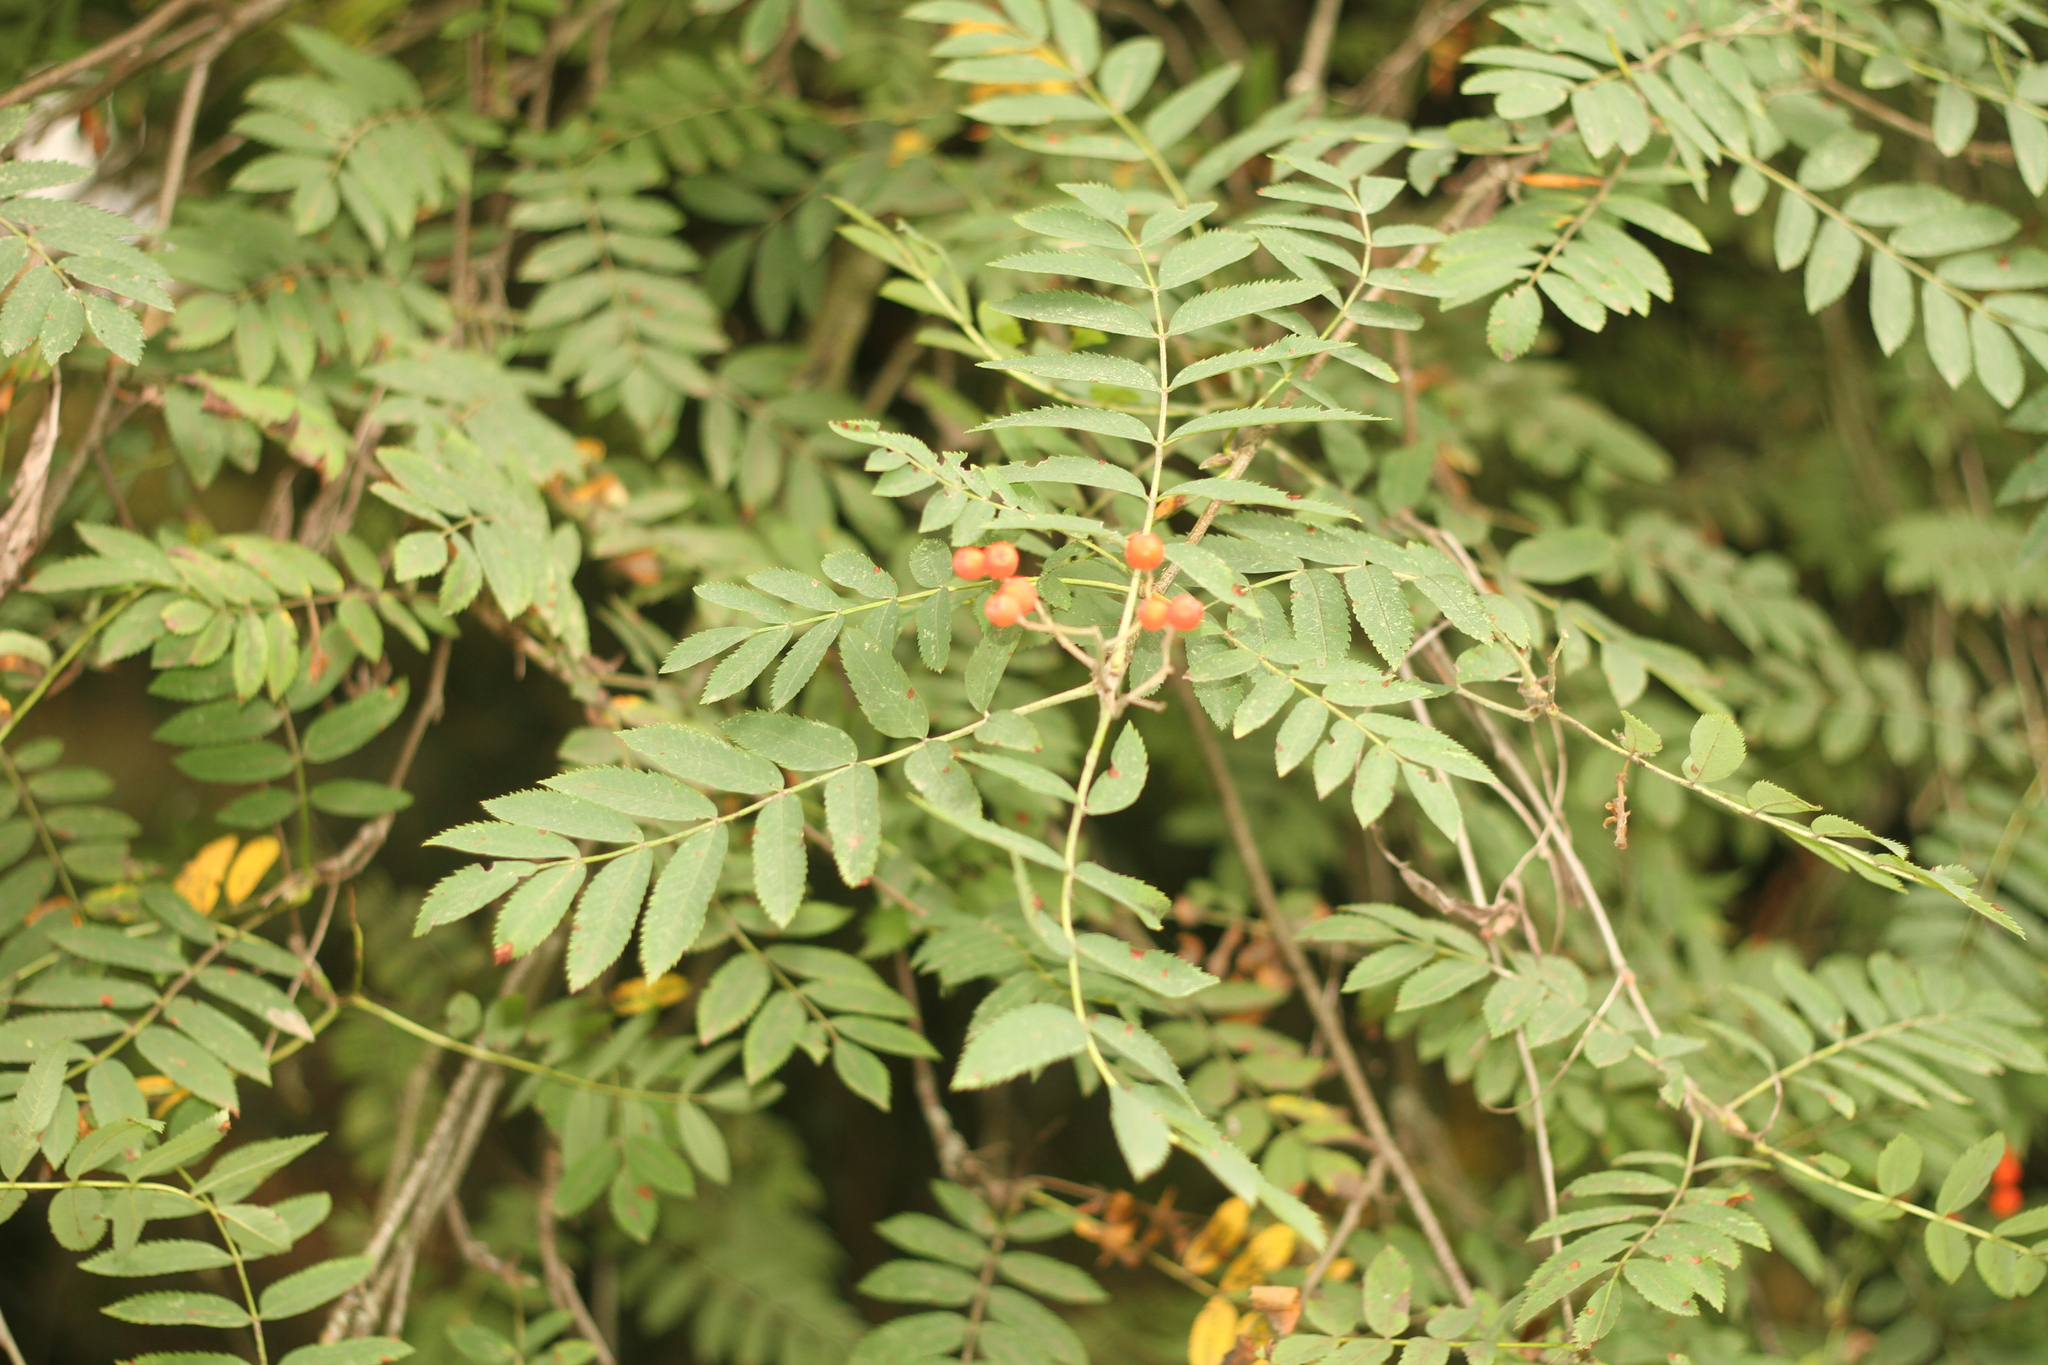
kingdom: Plantae
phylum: Tracheophyta
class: Magnoliopsida
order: Rosales
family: Rosaceae
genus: Sorbus
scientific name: Sorbus aucuparia
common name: Rowan
